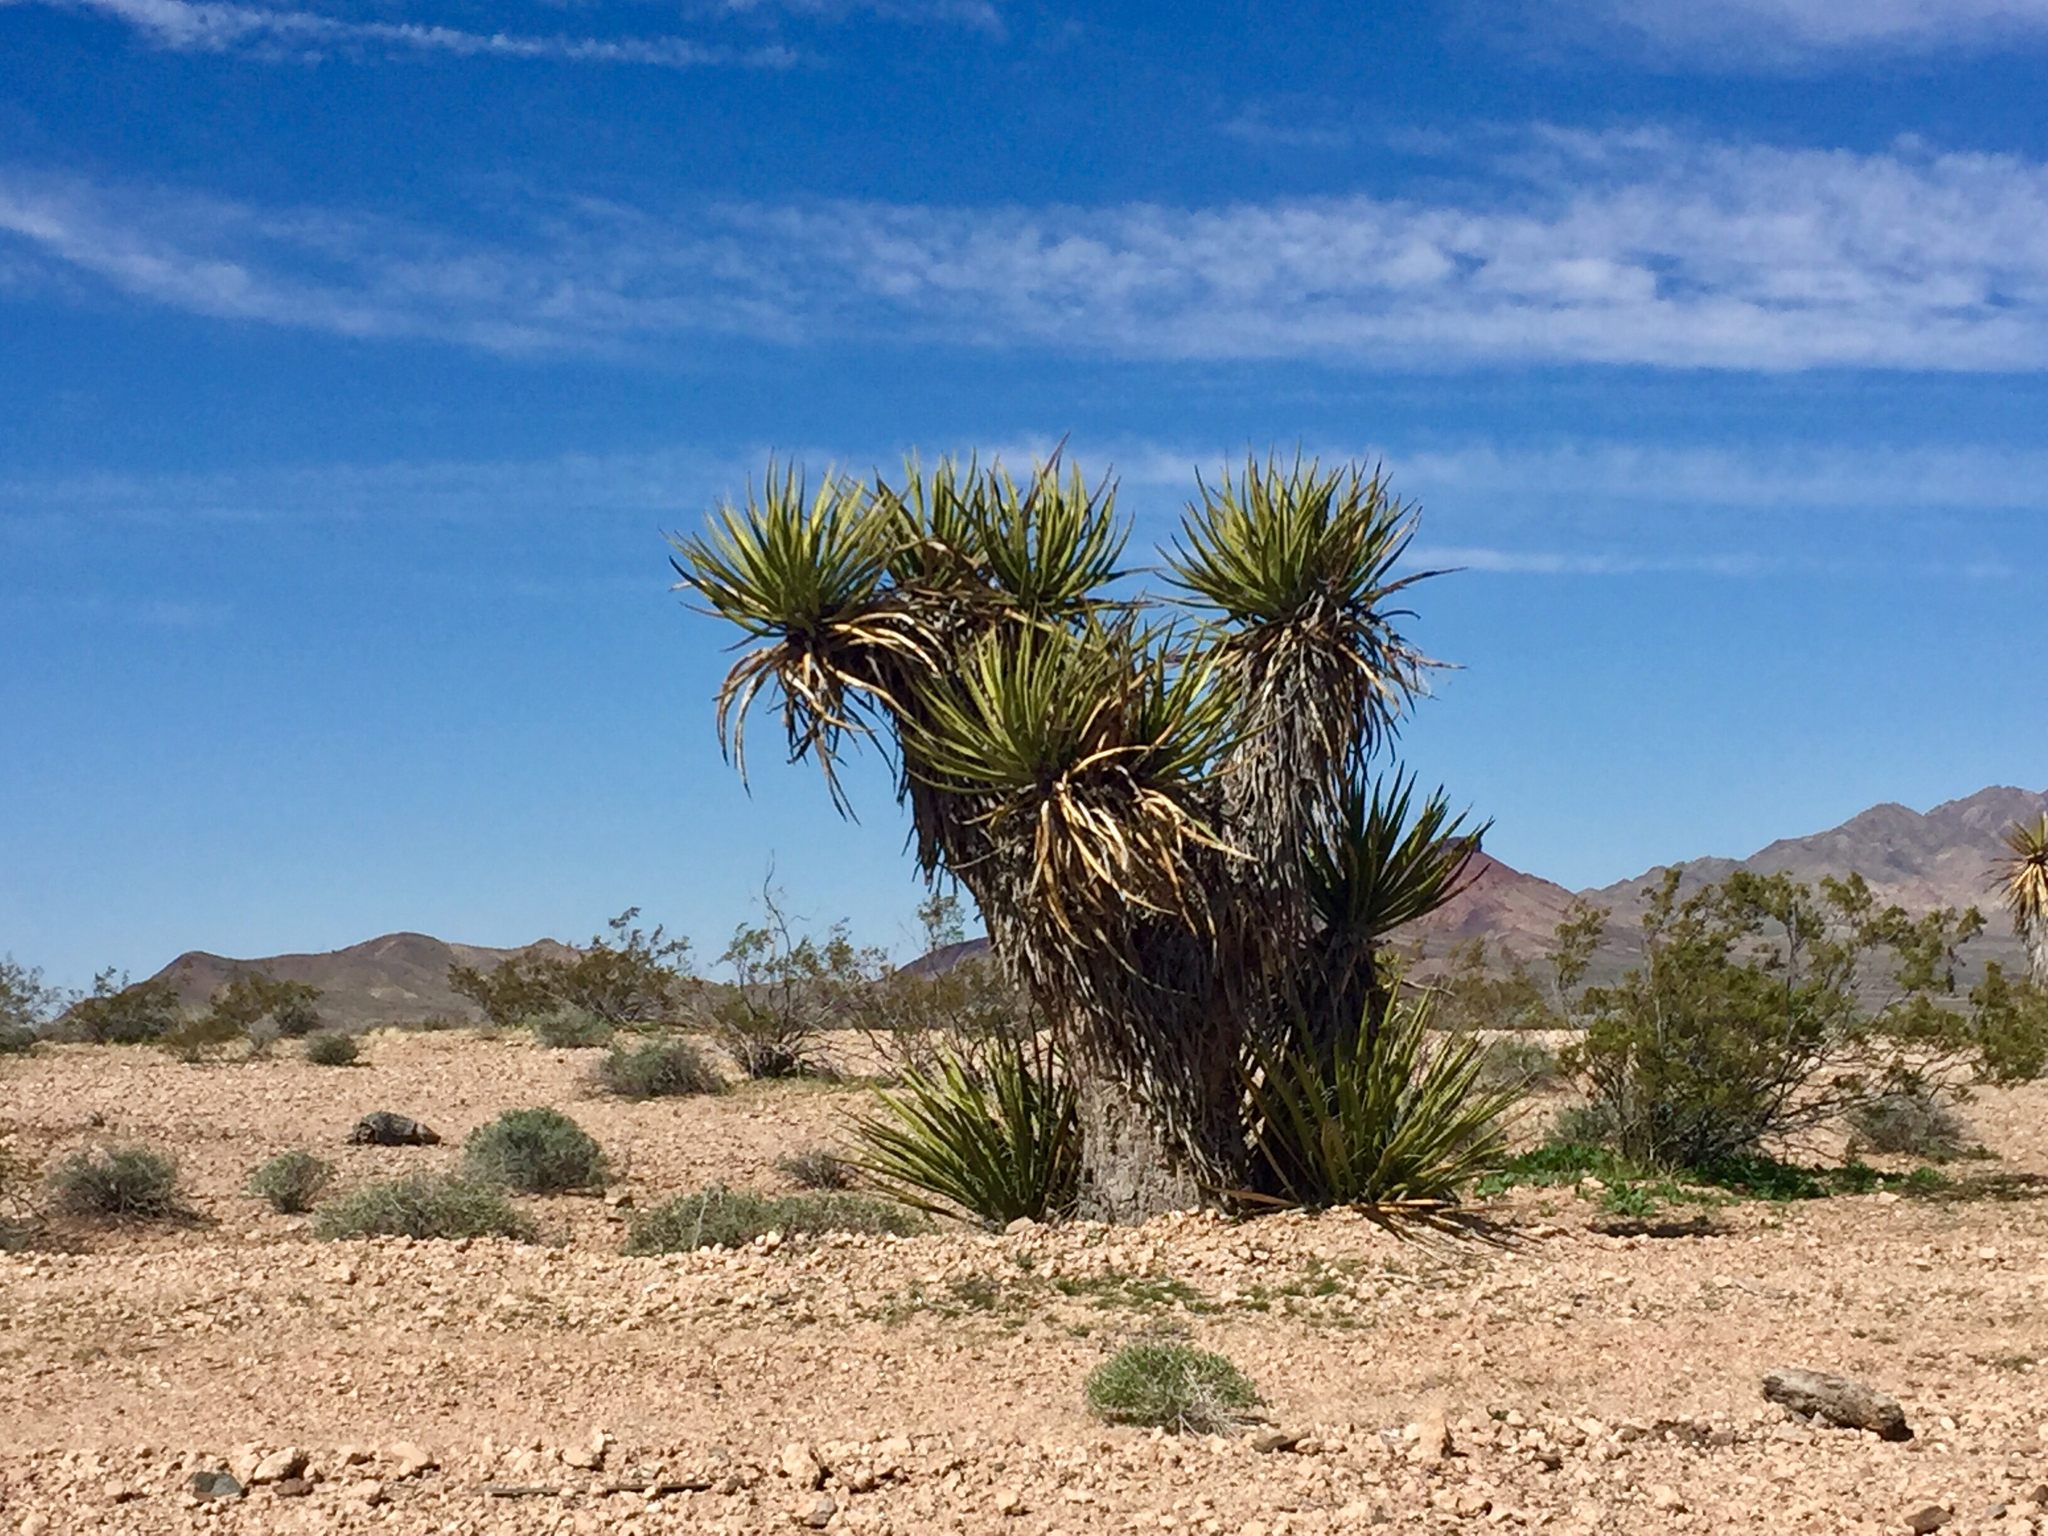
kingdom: Plantae
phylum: Tracheophyta
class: Liliopsida
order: Asparagales
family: Asparagaceae
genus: Yucca
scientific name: Yucca schidigera
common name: Mojave yucca
